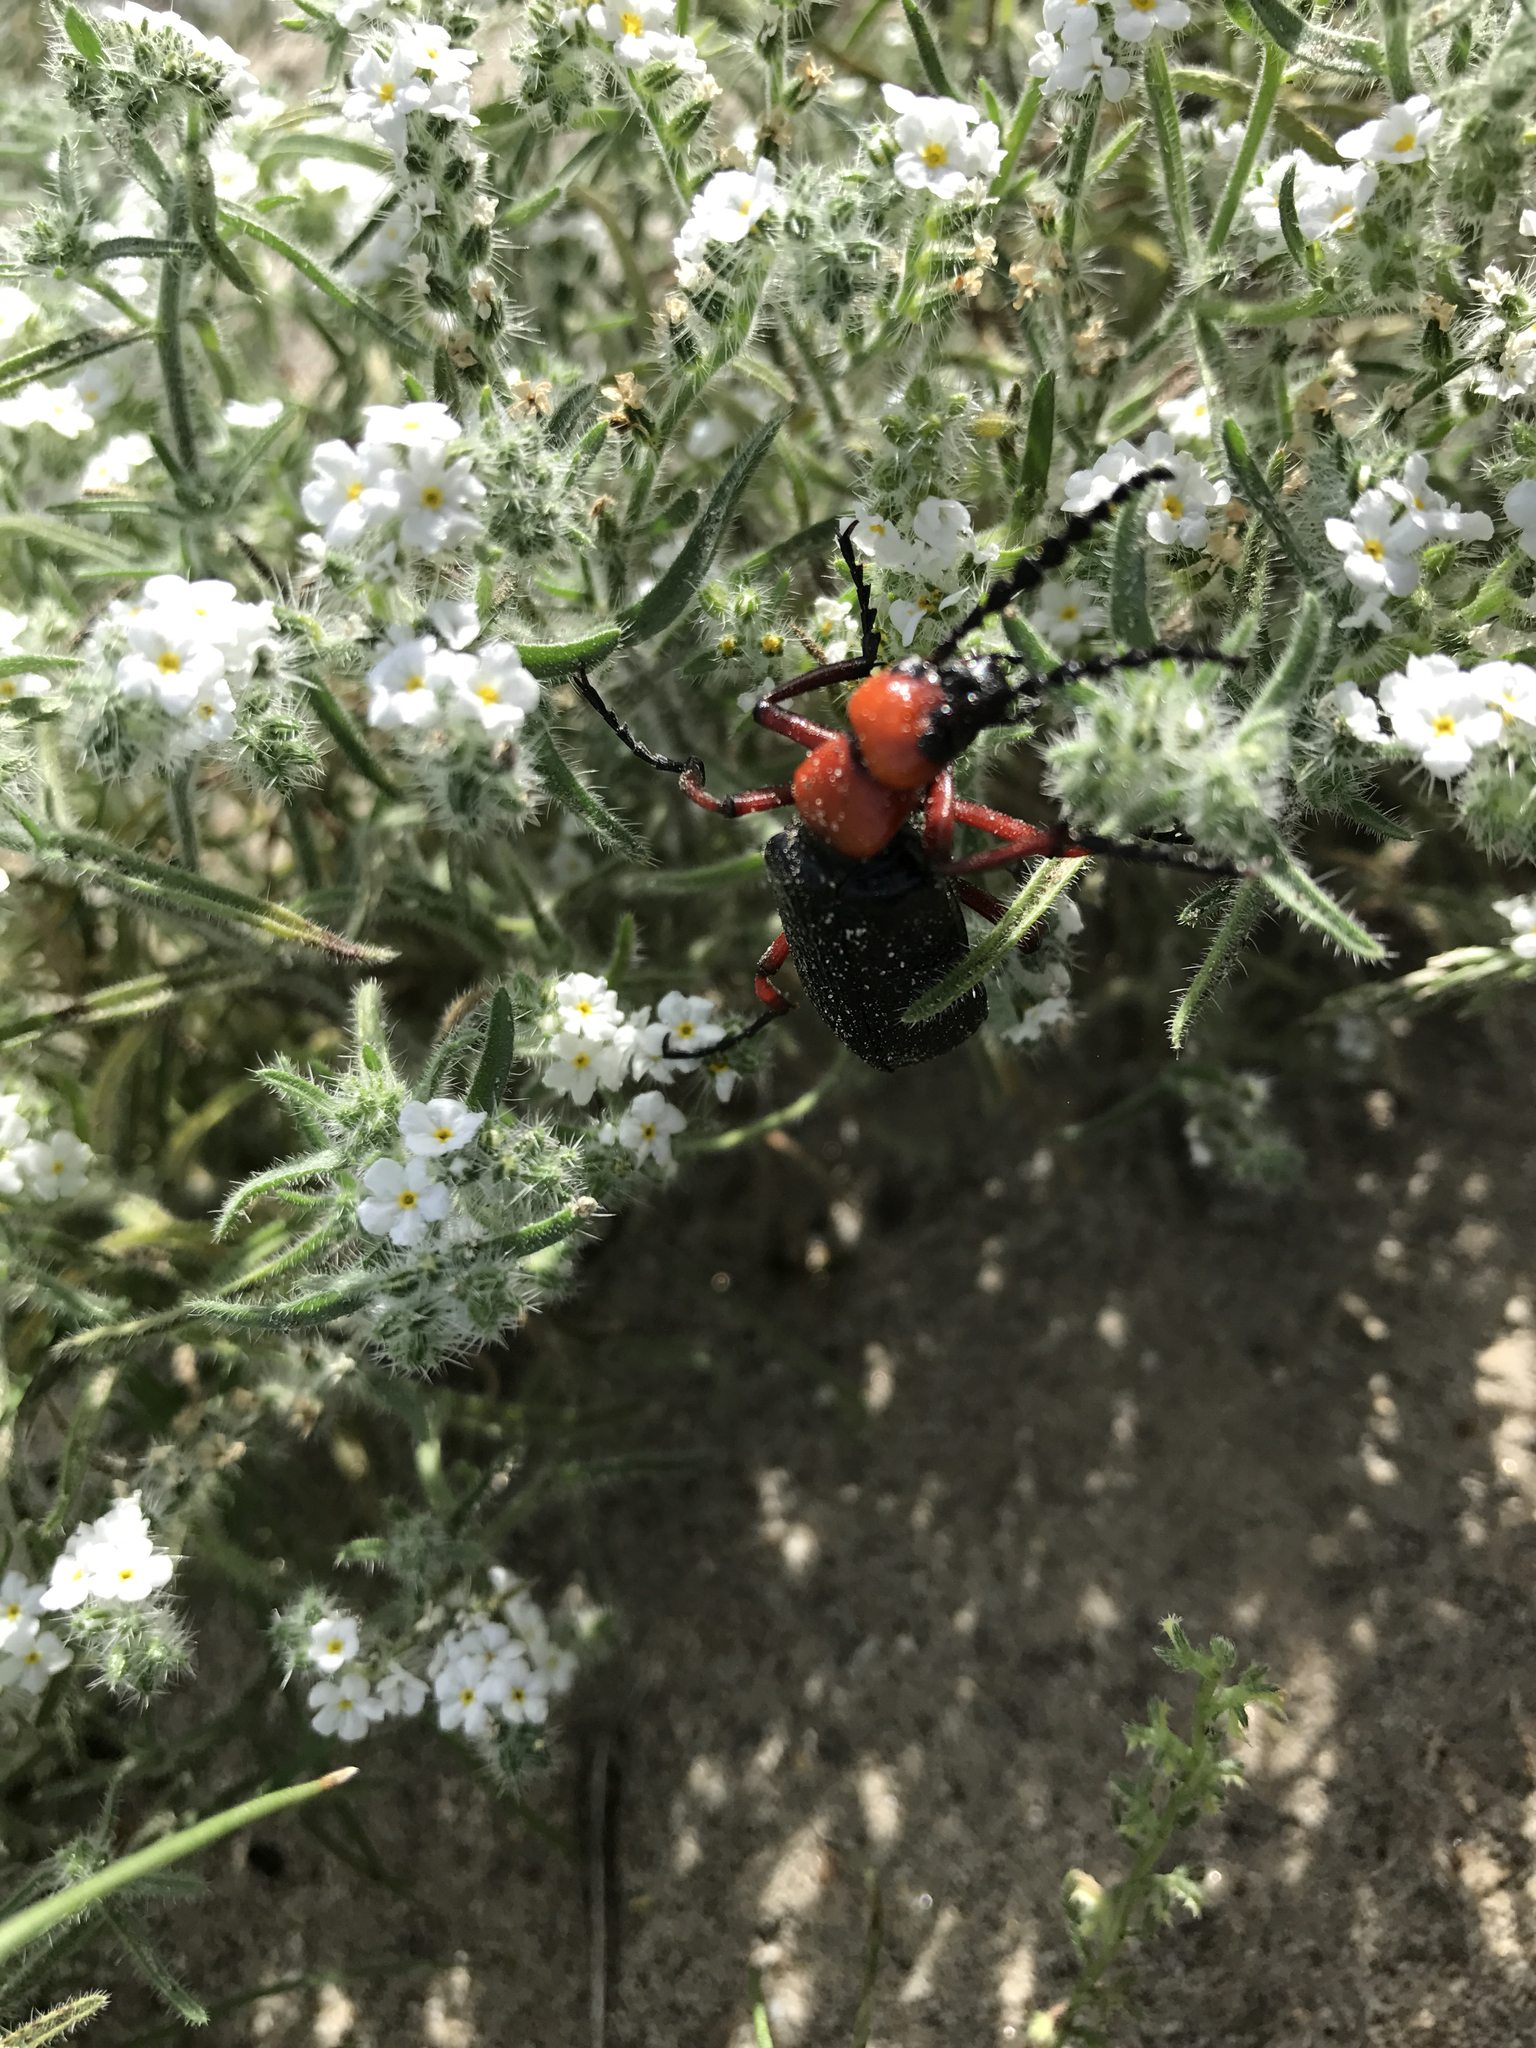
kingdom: Animalia
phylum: Arthropoda
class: Insecta
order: Coleoptera
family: Meloidae
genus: Lytta
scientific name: Lytta magister
